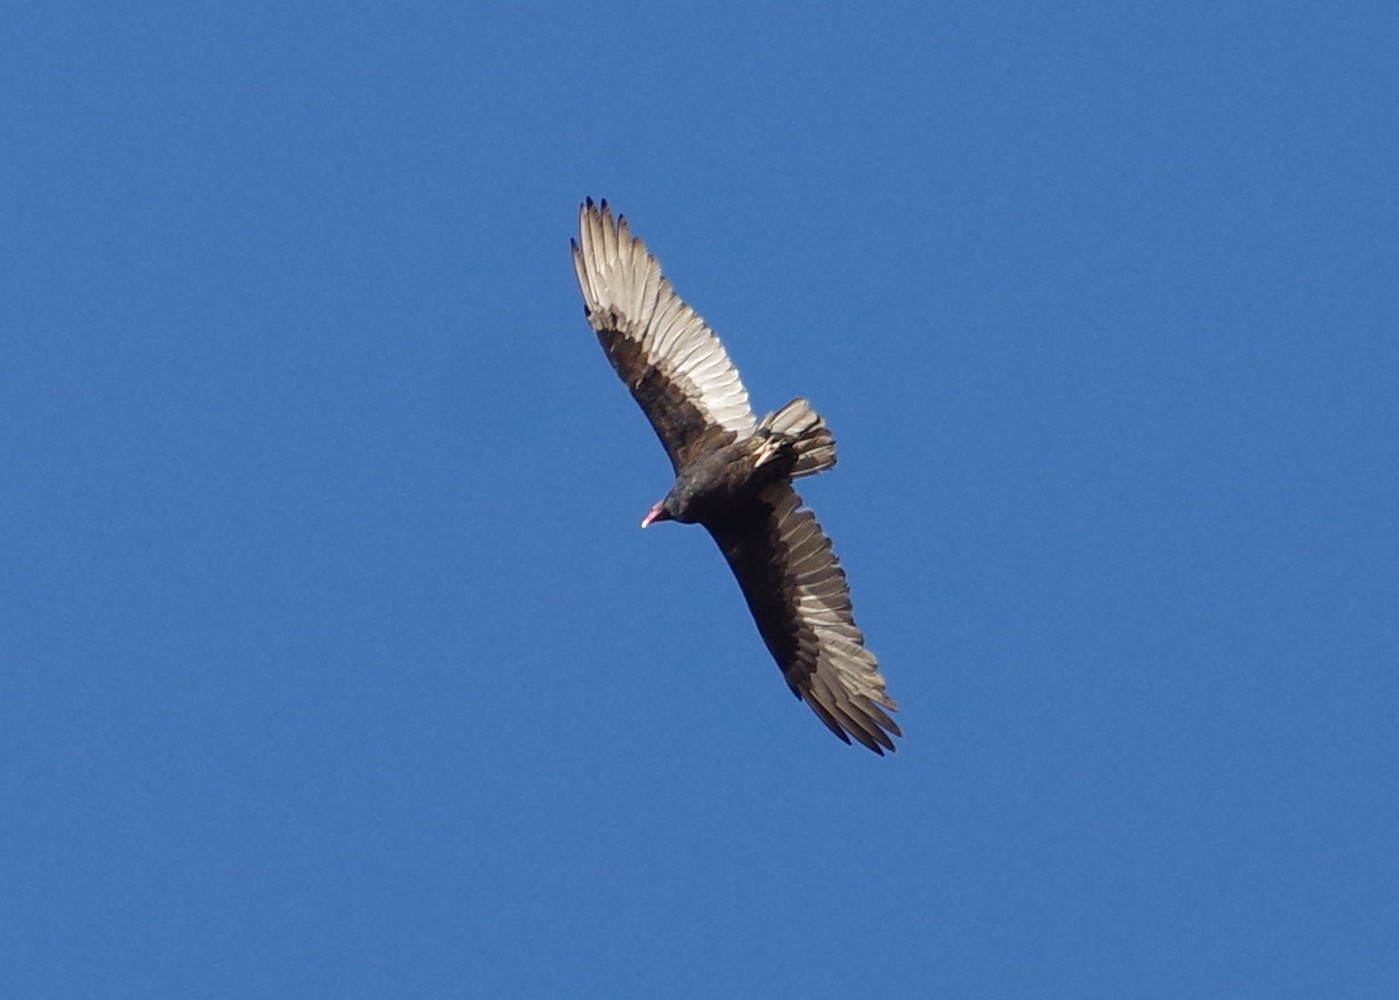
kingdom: Animalia
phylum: Chordata
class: Aves
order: Accipitriformes
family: Cathartidae
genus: Cathartes
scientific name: Cathartes aura
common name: Turkey vulture
